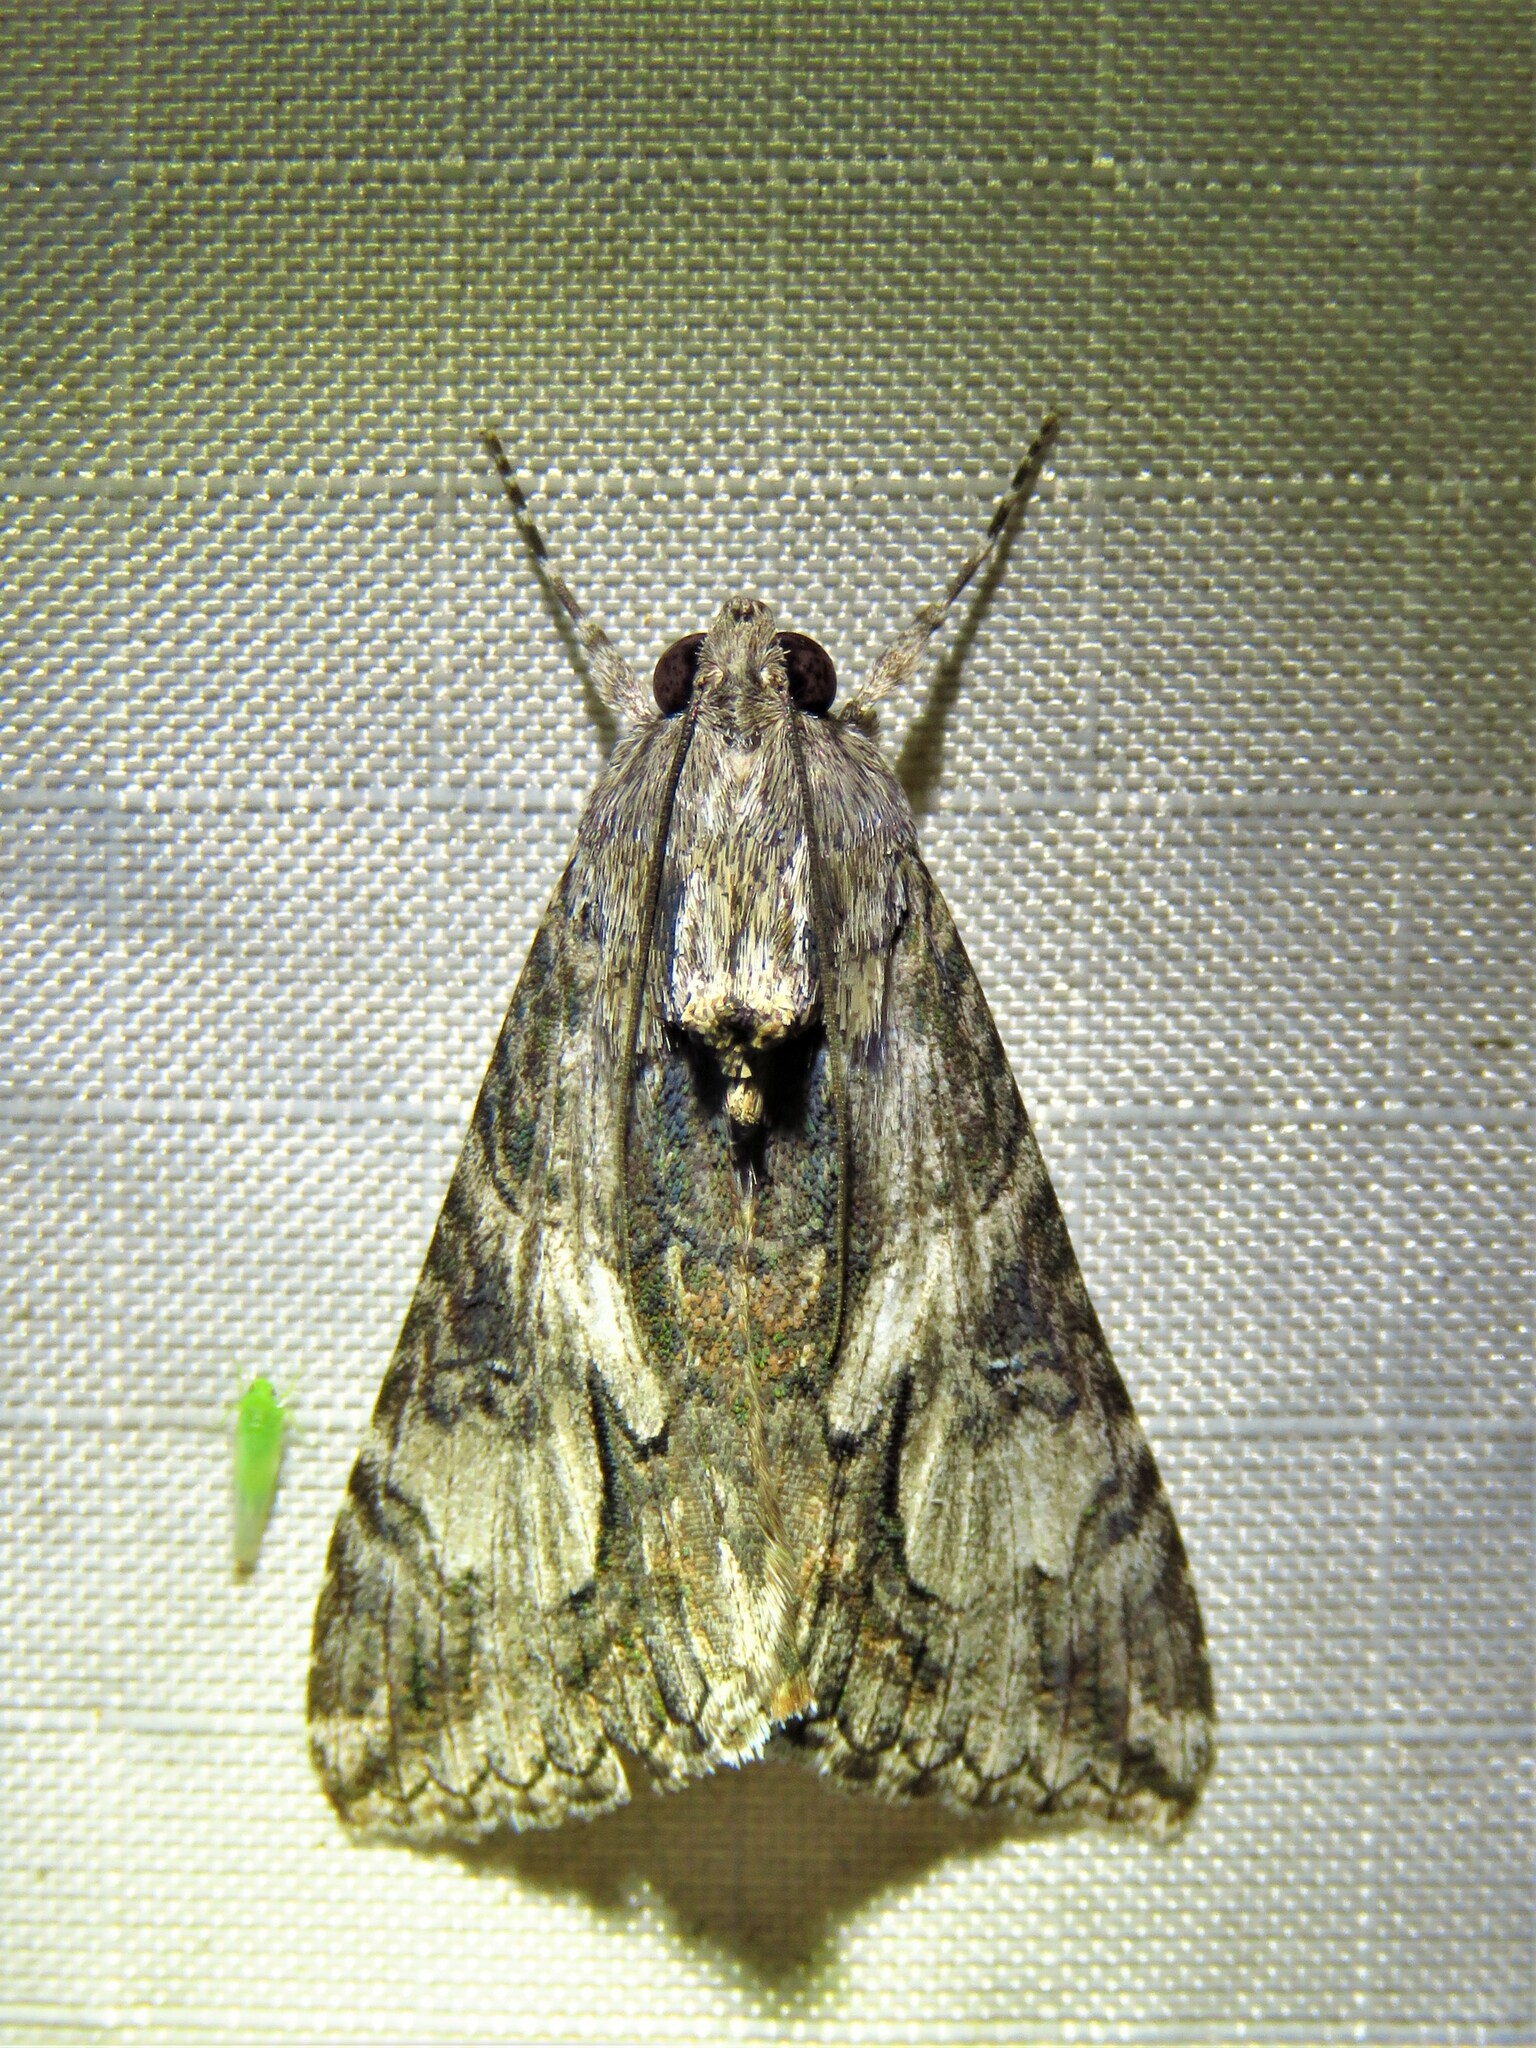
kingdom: Animalia
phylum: Arthropoda
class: Insecta
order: Lepidoptera
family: Erebidae
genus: Melipotis
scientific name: Melipotis jucunda
